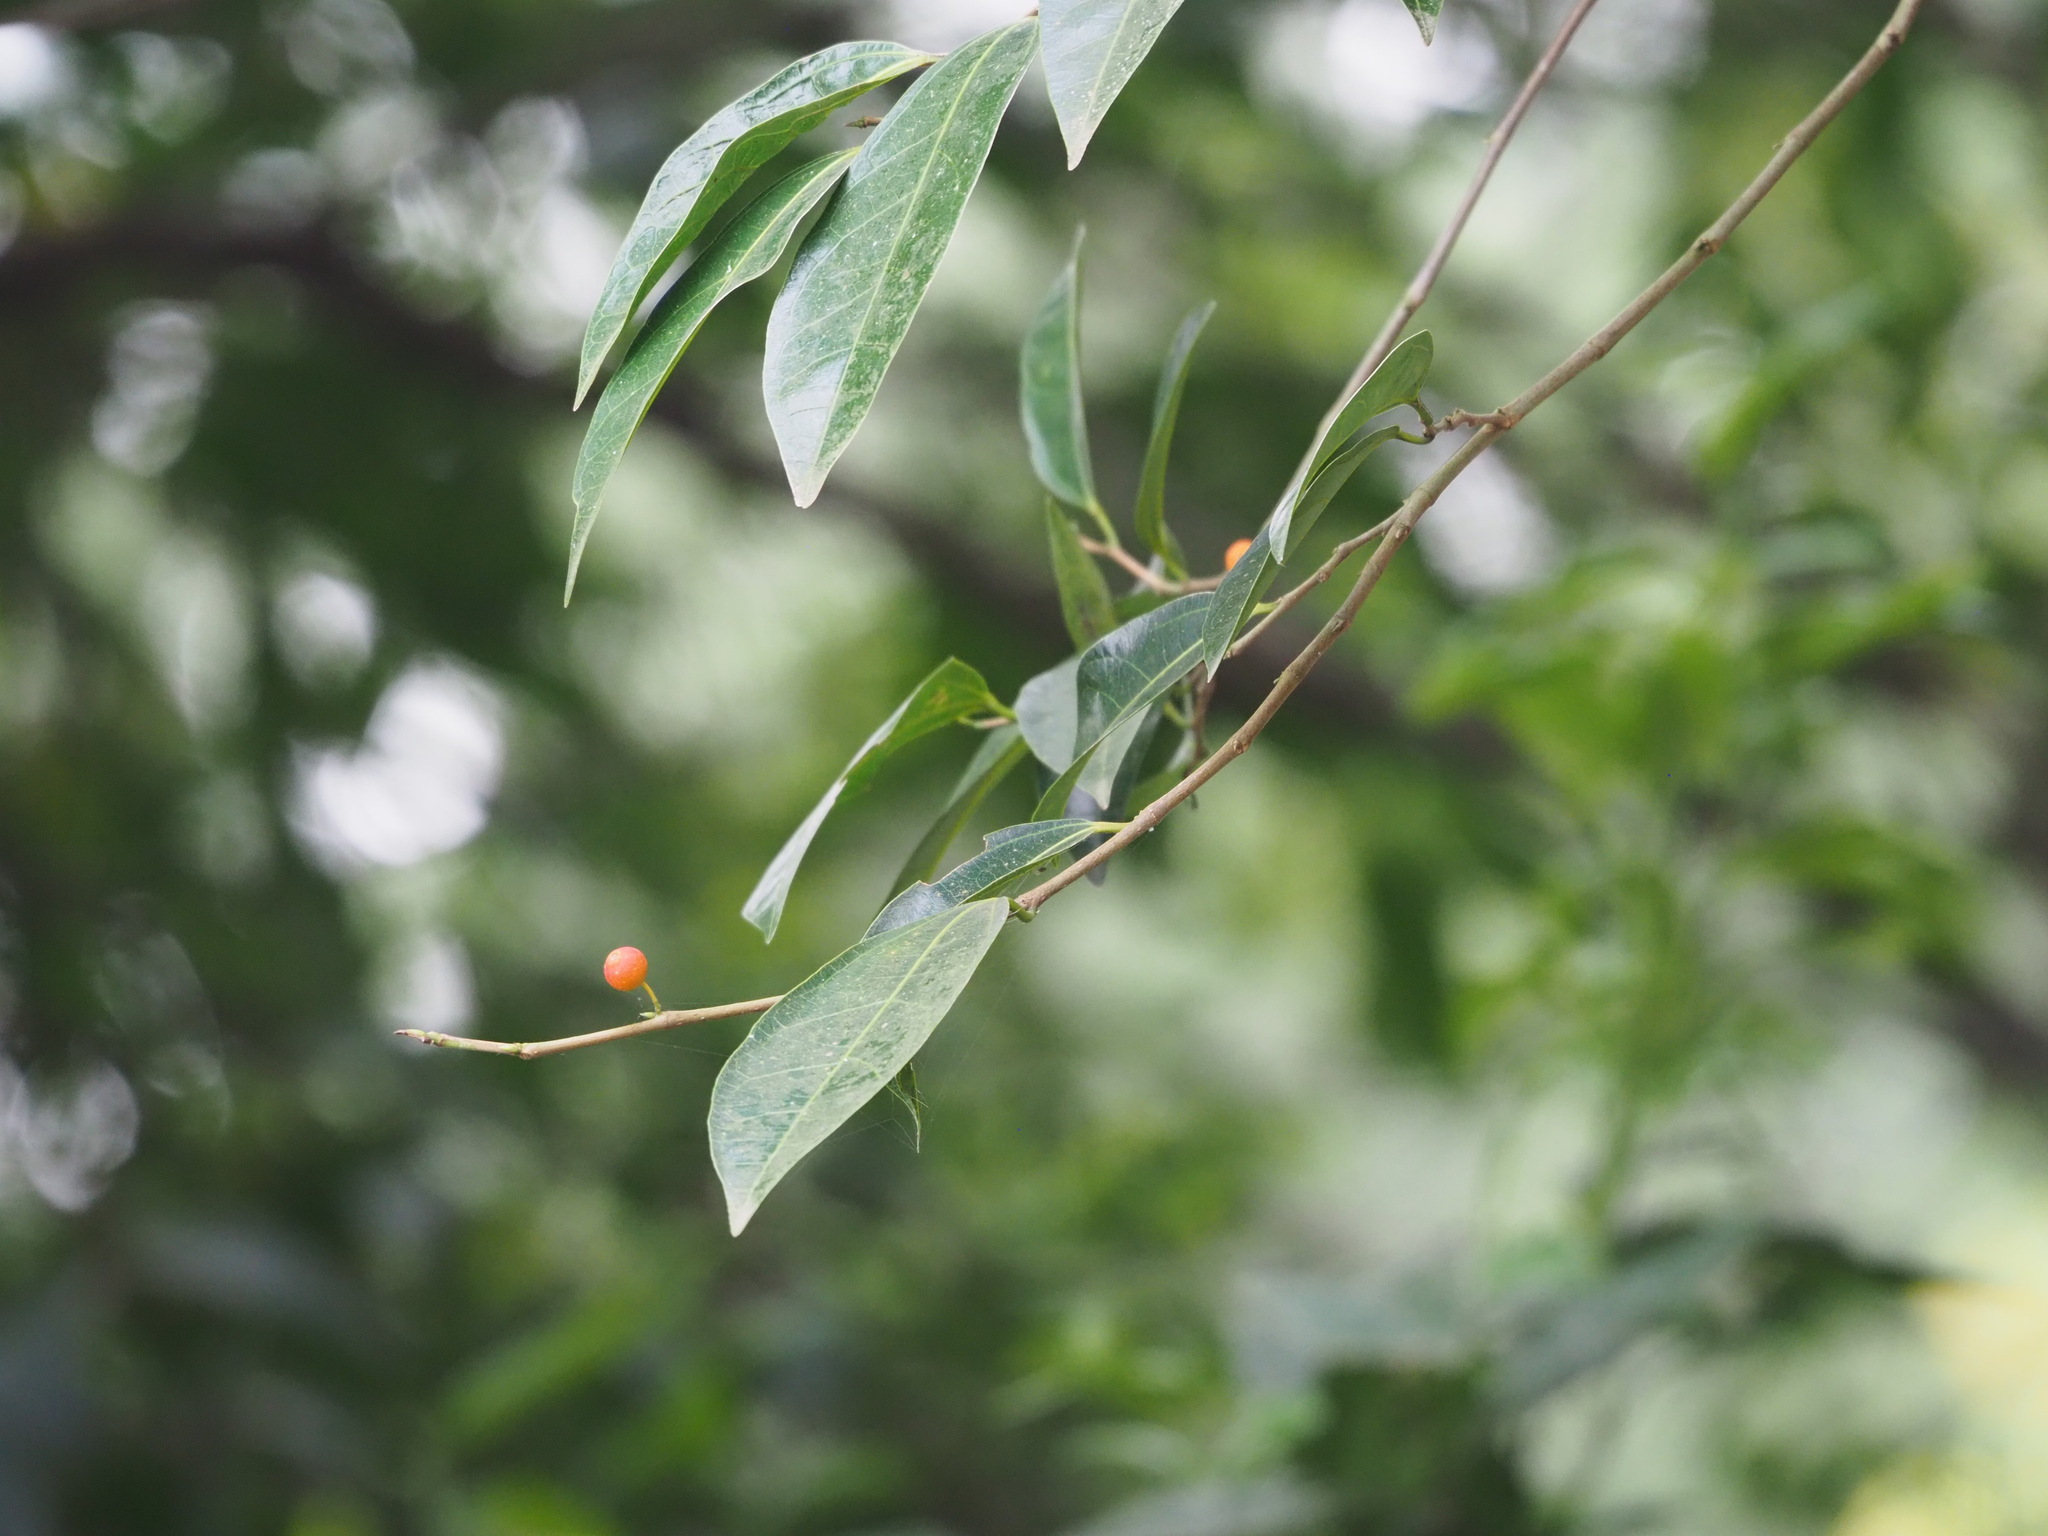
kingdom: Plantae
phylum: Tracheophyta
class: Magnoliopsida
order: Rosales
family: Moraceae
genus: Ficus
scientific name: Ficus ampelos
